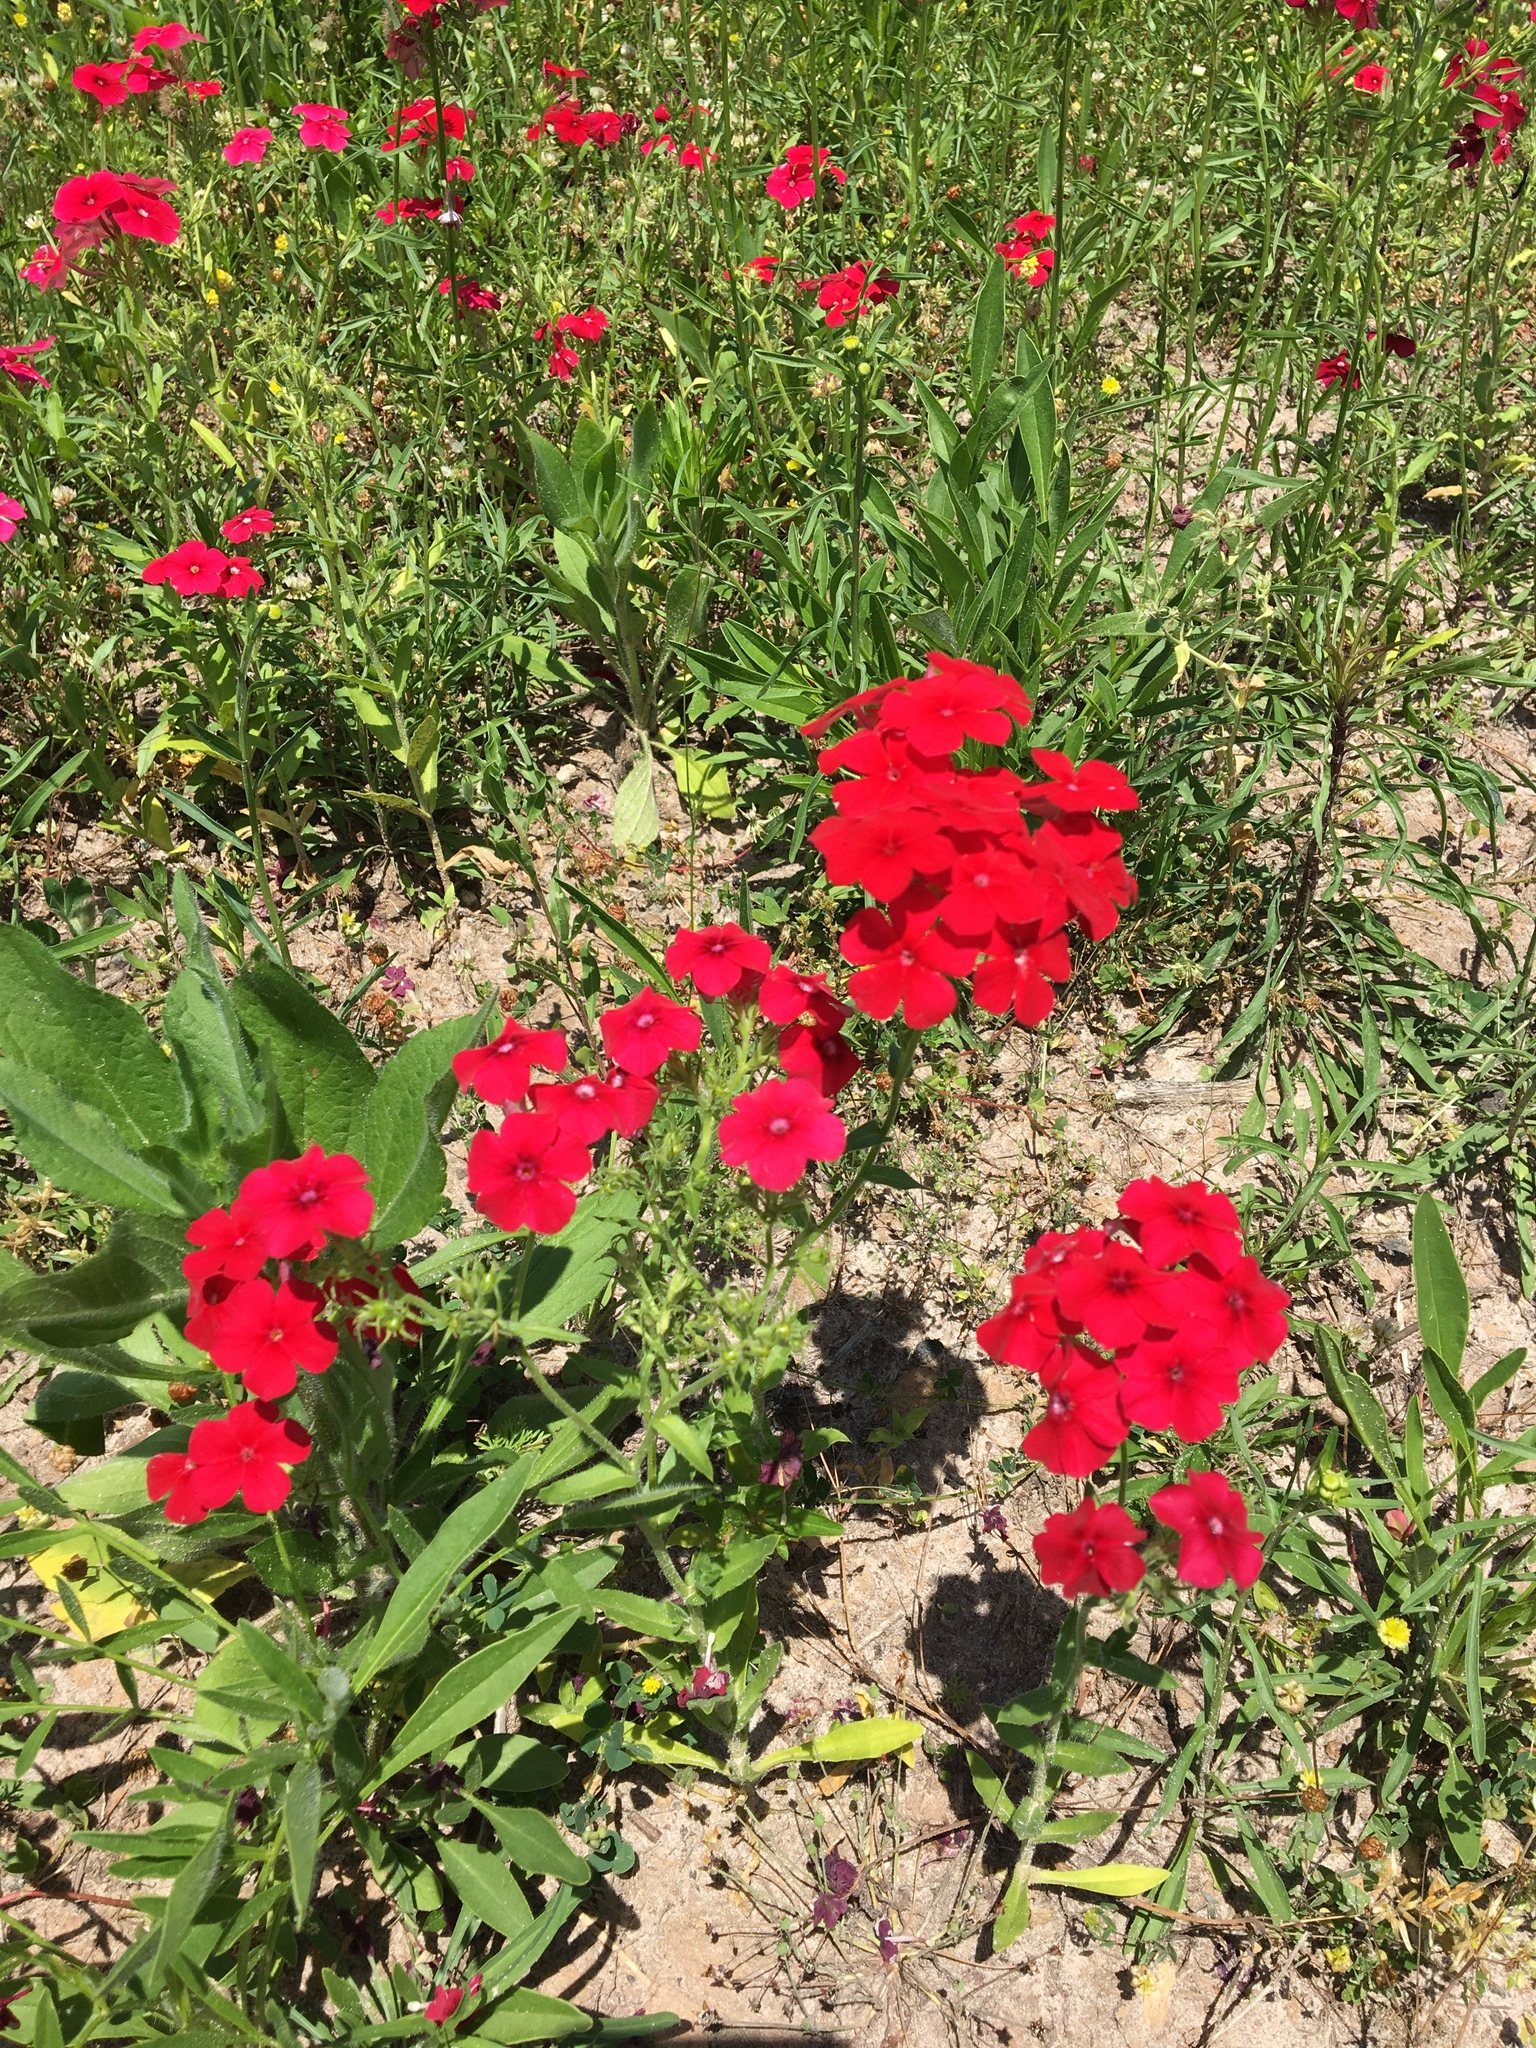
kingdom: Plantae
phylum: Tracheophyta
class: Magnoliopsida
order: Ericales
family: Polemoniaceae
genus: Phlox
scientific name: Phlox drummondii
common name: Drummond's phlox
